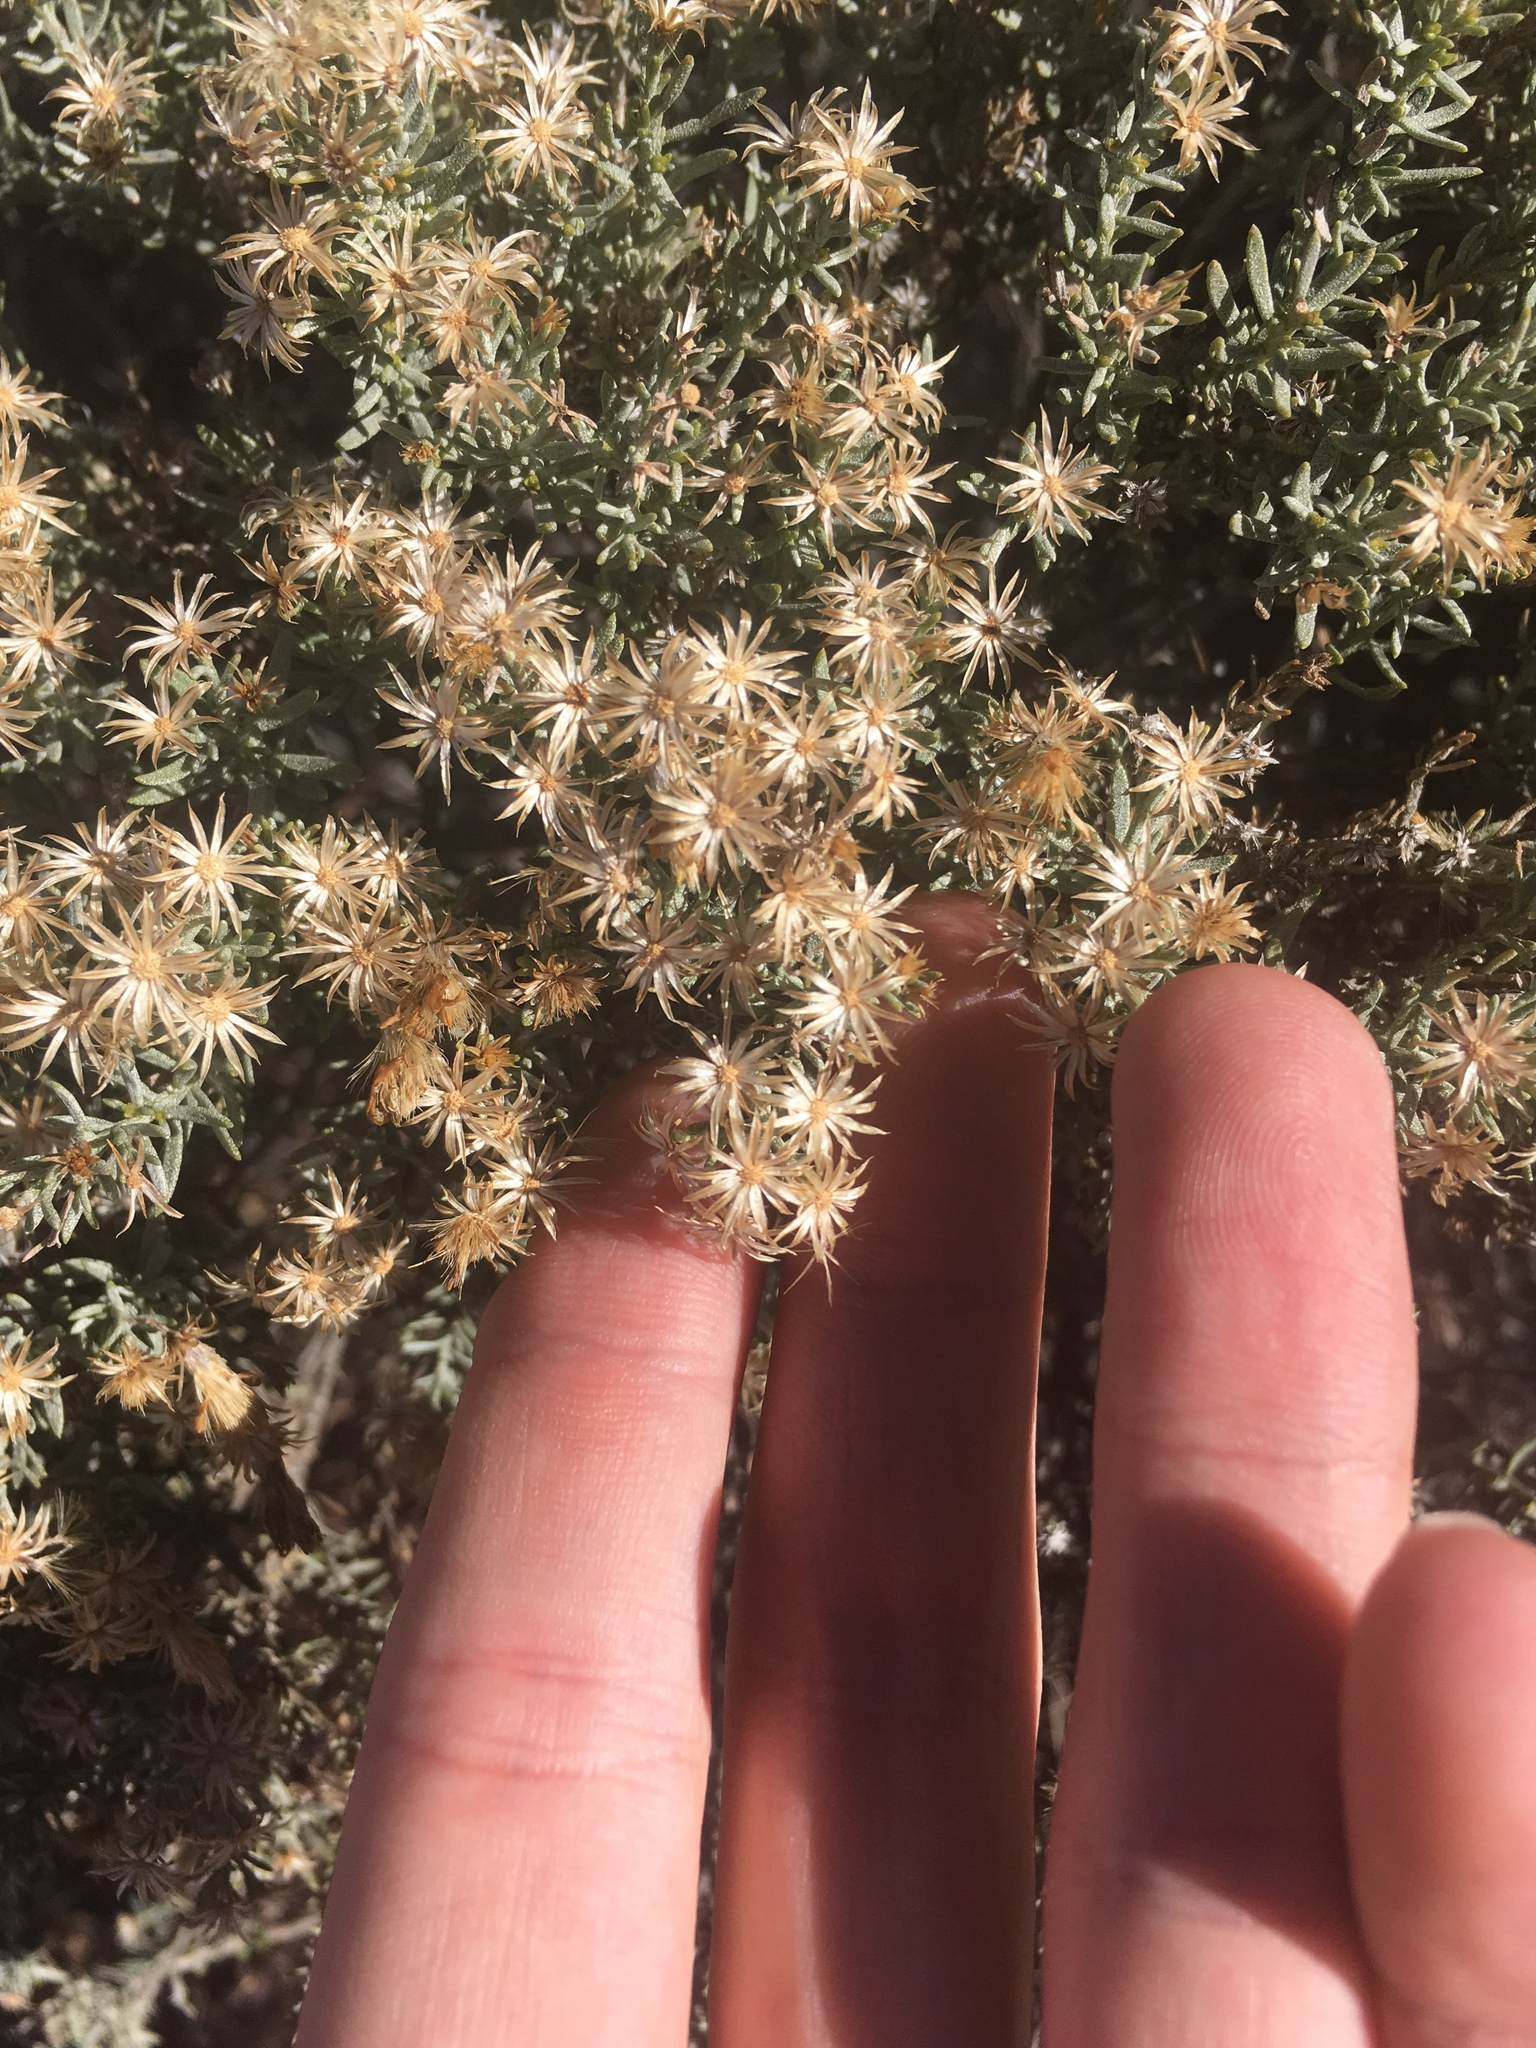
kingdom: Plantae
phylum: Tracheophyta
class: Magnoliopsida
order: Asterales
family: Asteraceae
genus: Ericameria
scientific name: Ericameria laricifolia
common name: Turpentine-bush
